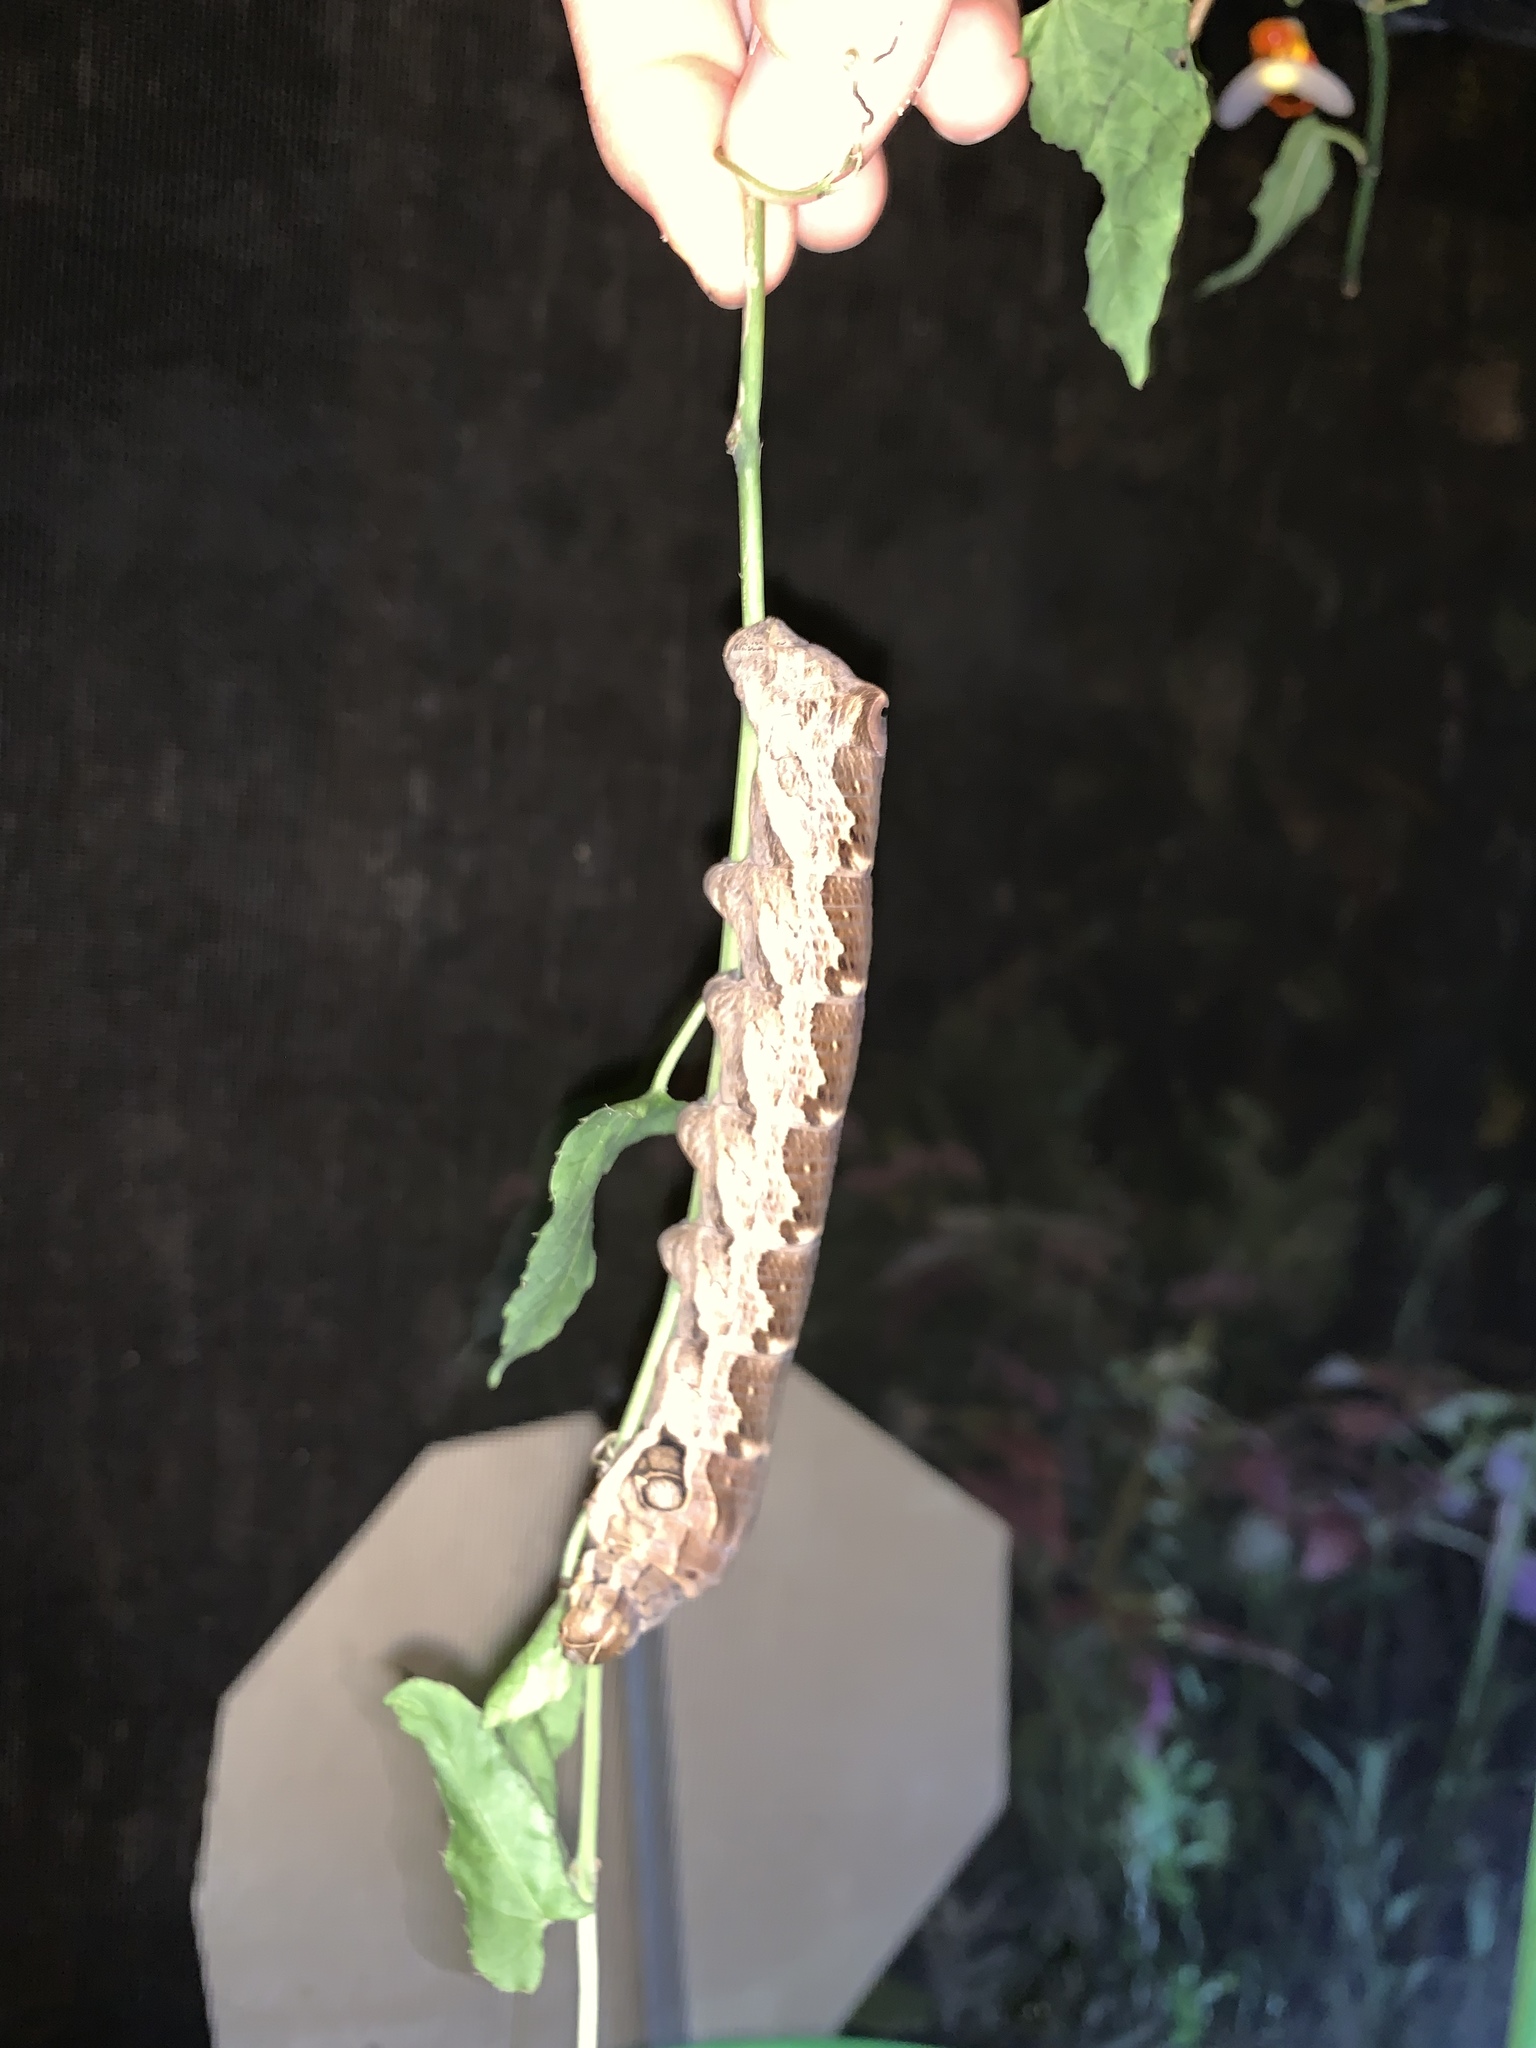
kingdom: Animalia
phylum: Arthropoda
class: Insecta
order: Lepidoptera
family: Sphingidae
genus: Eumorpha
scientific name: Eumorpha labruscae
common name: Gaudy sphinx
